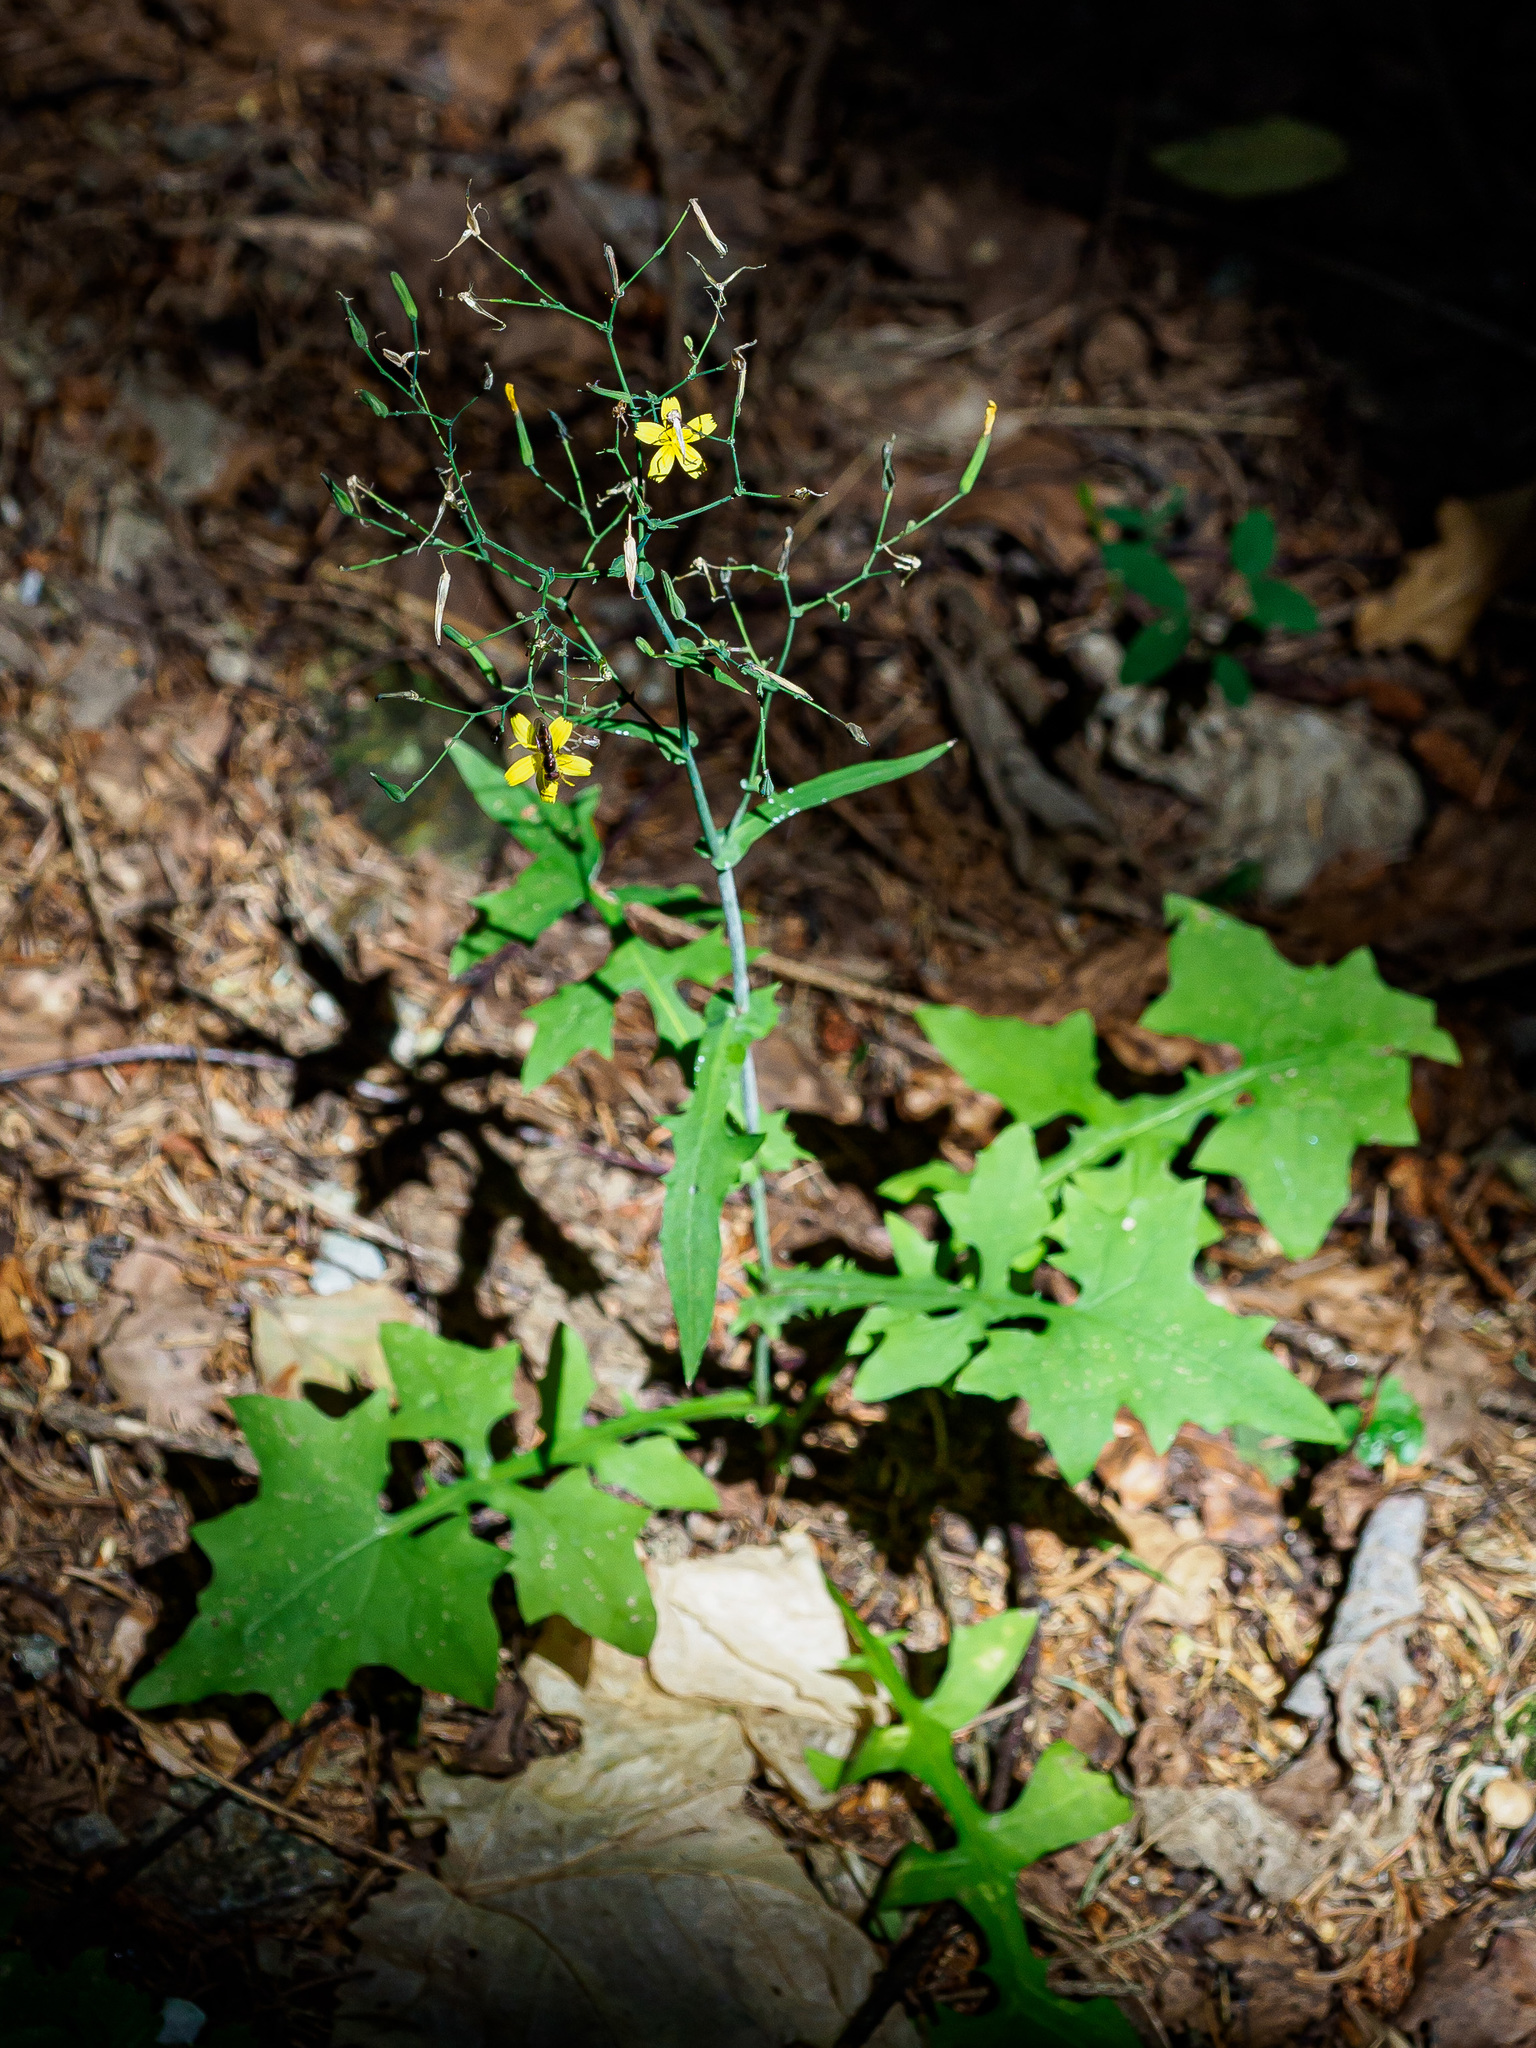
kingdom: Plantae
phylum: Tracheophyta
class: Magnoliopsida
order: Asterales
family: Asteraceae
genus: Mycelis
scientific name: Mycelis muralis
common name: Wall lettuce
